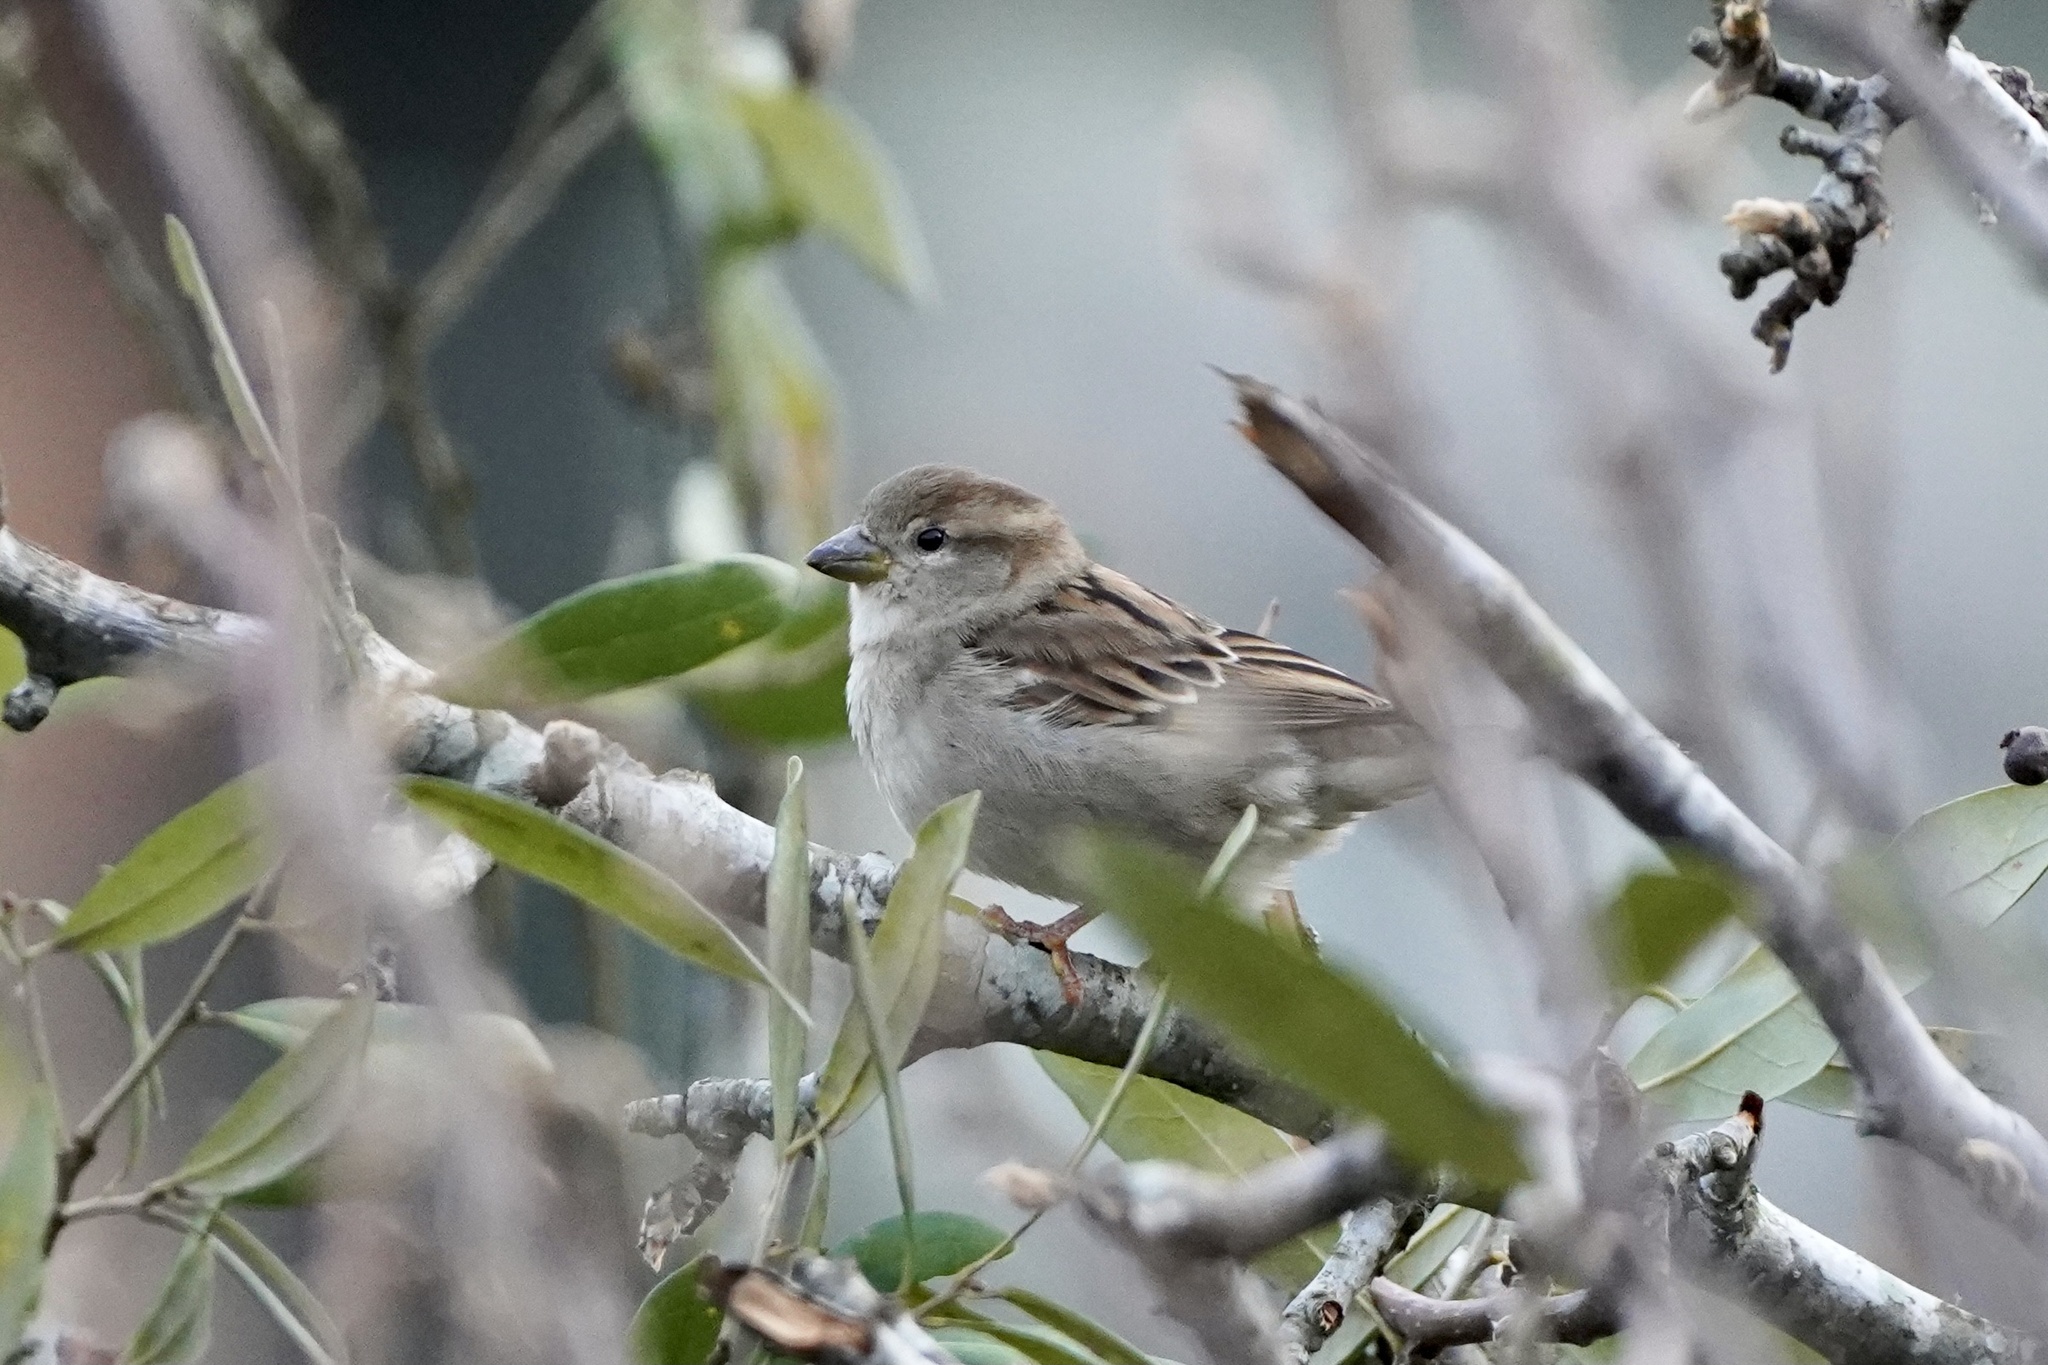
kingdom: Animalia
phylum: Chordata
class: Aves
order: Passeriformes
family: Passeridae
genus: Passer
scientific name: Passer domesticus
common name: House sparrow
